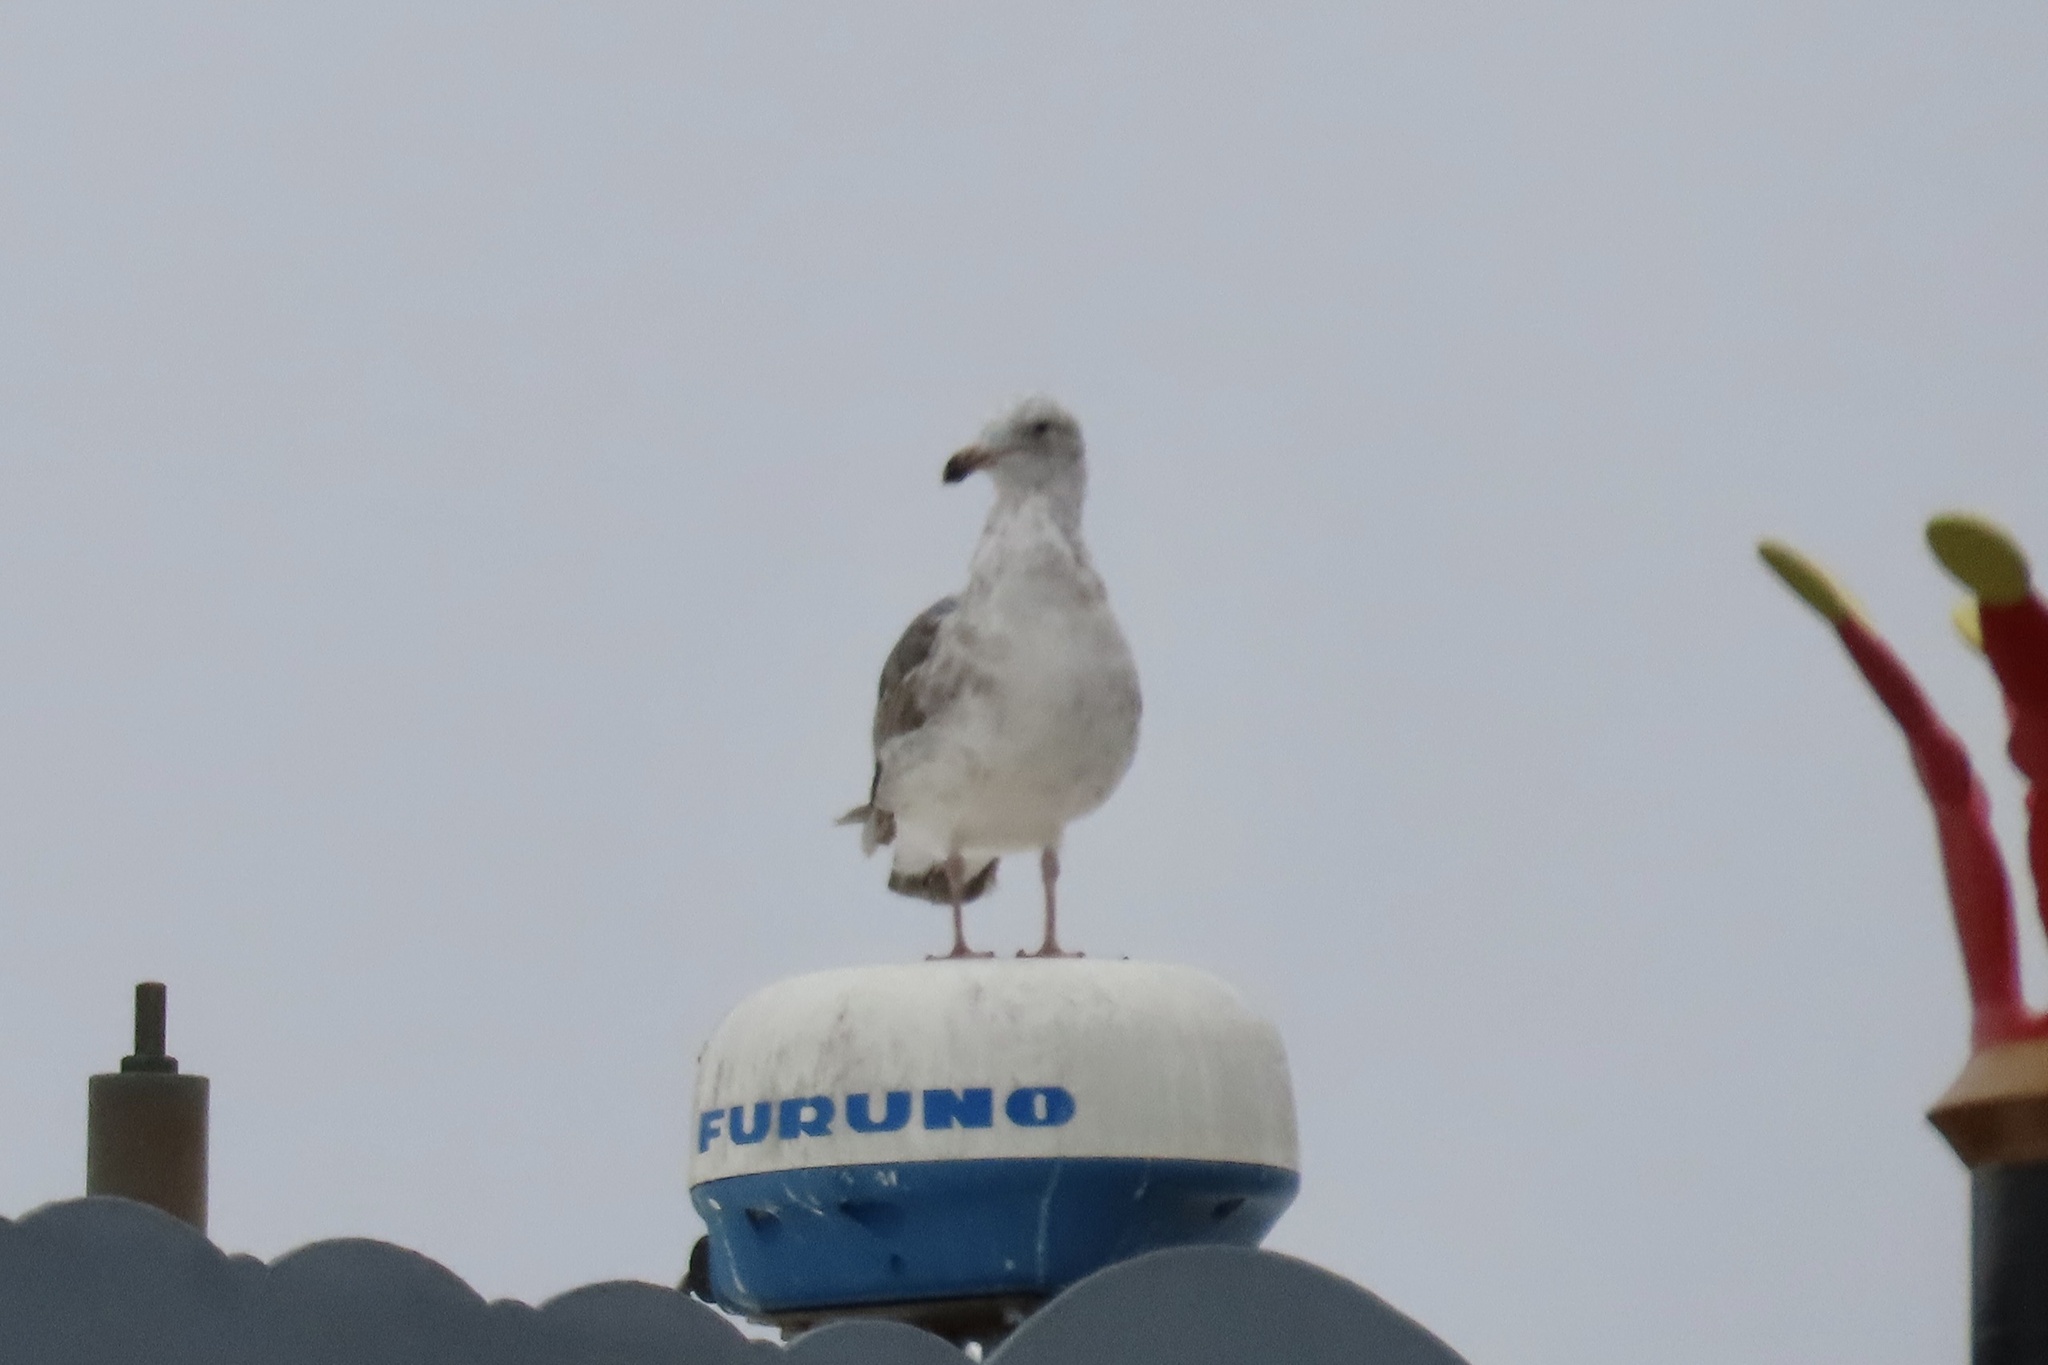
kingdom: Animalia
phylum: Chordata
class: Aves
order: Charadriiformes
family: Laridae
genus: Larus
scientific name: Larus occidentalis
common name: Western gull
